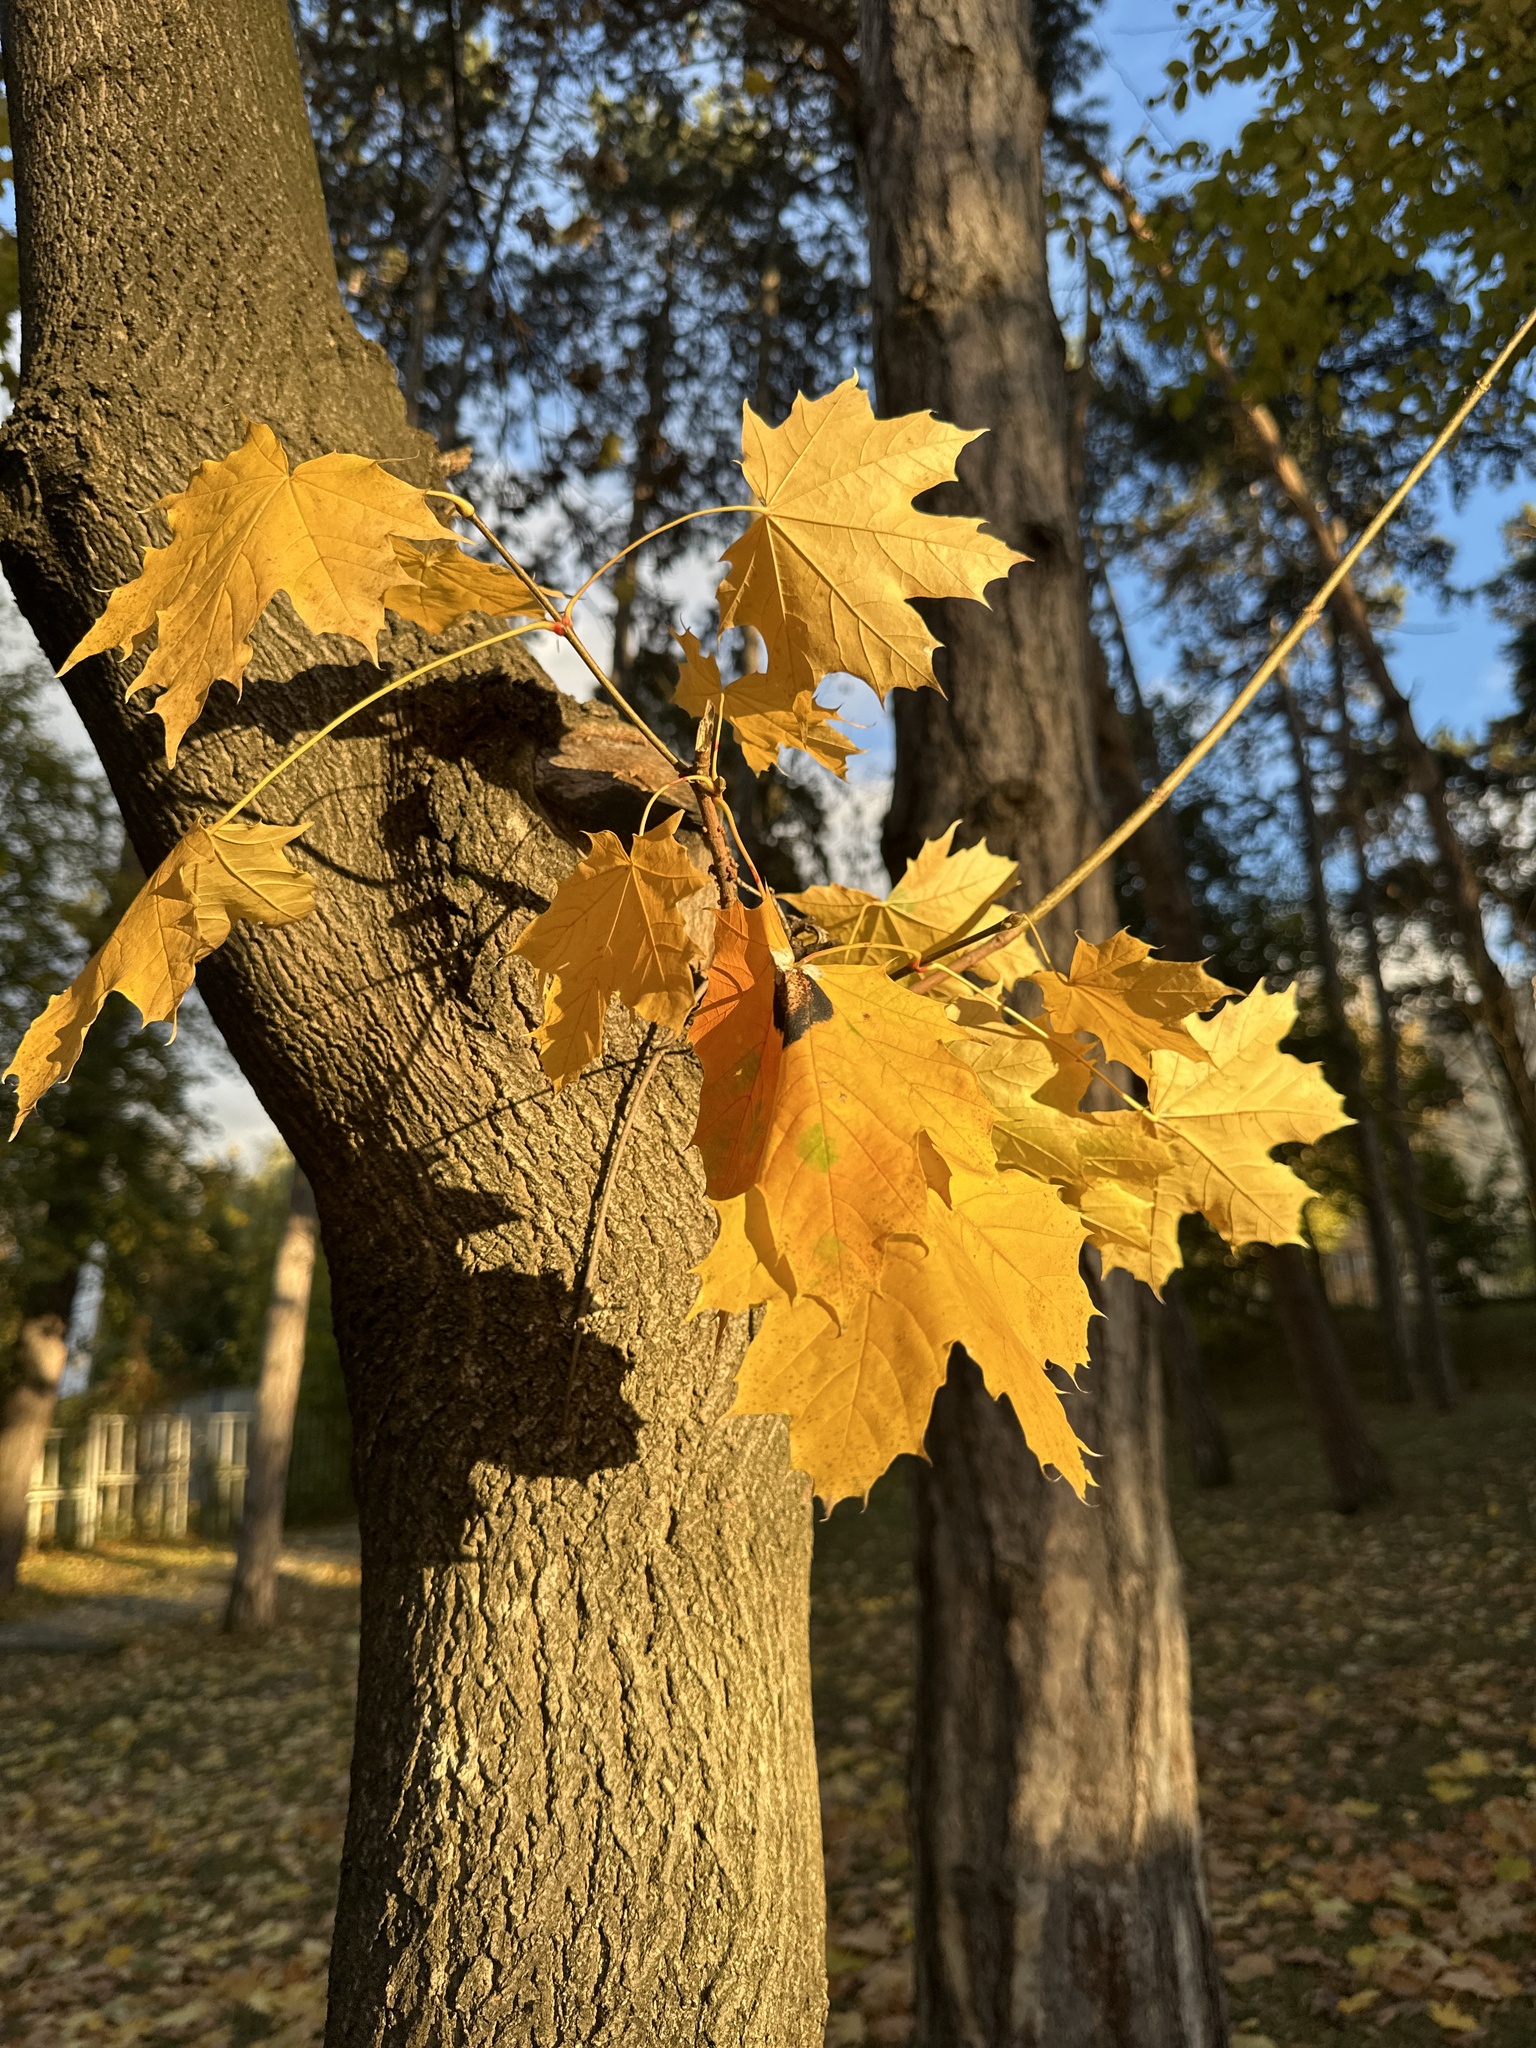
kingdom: Plantae
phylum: Tracheophyta
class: Magnoliopsida
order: Sapindales
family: Sapindaceae
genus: Acer
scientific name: Acer platanoides
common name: Norway maple
